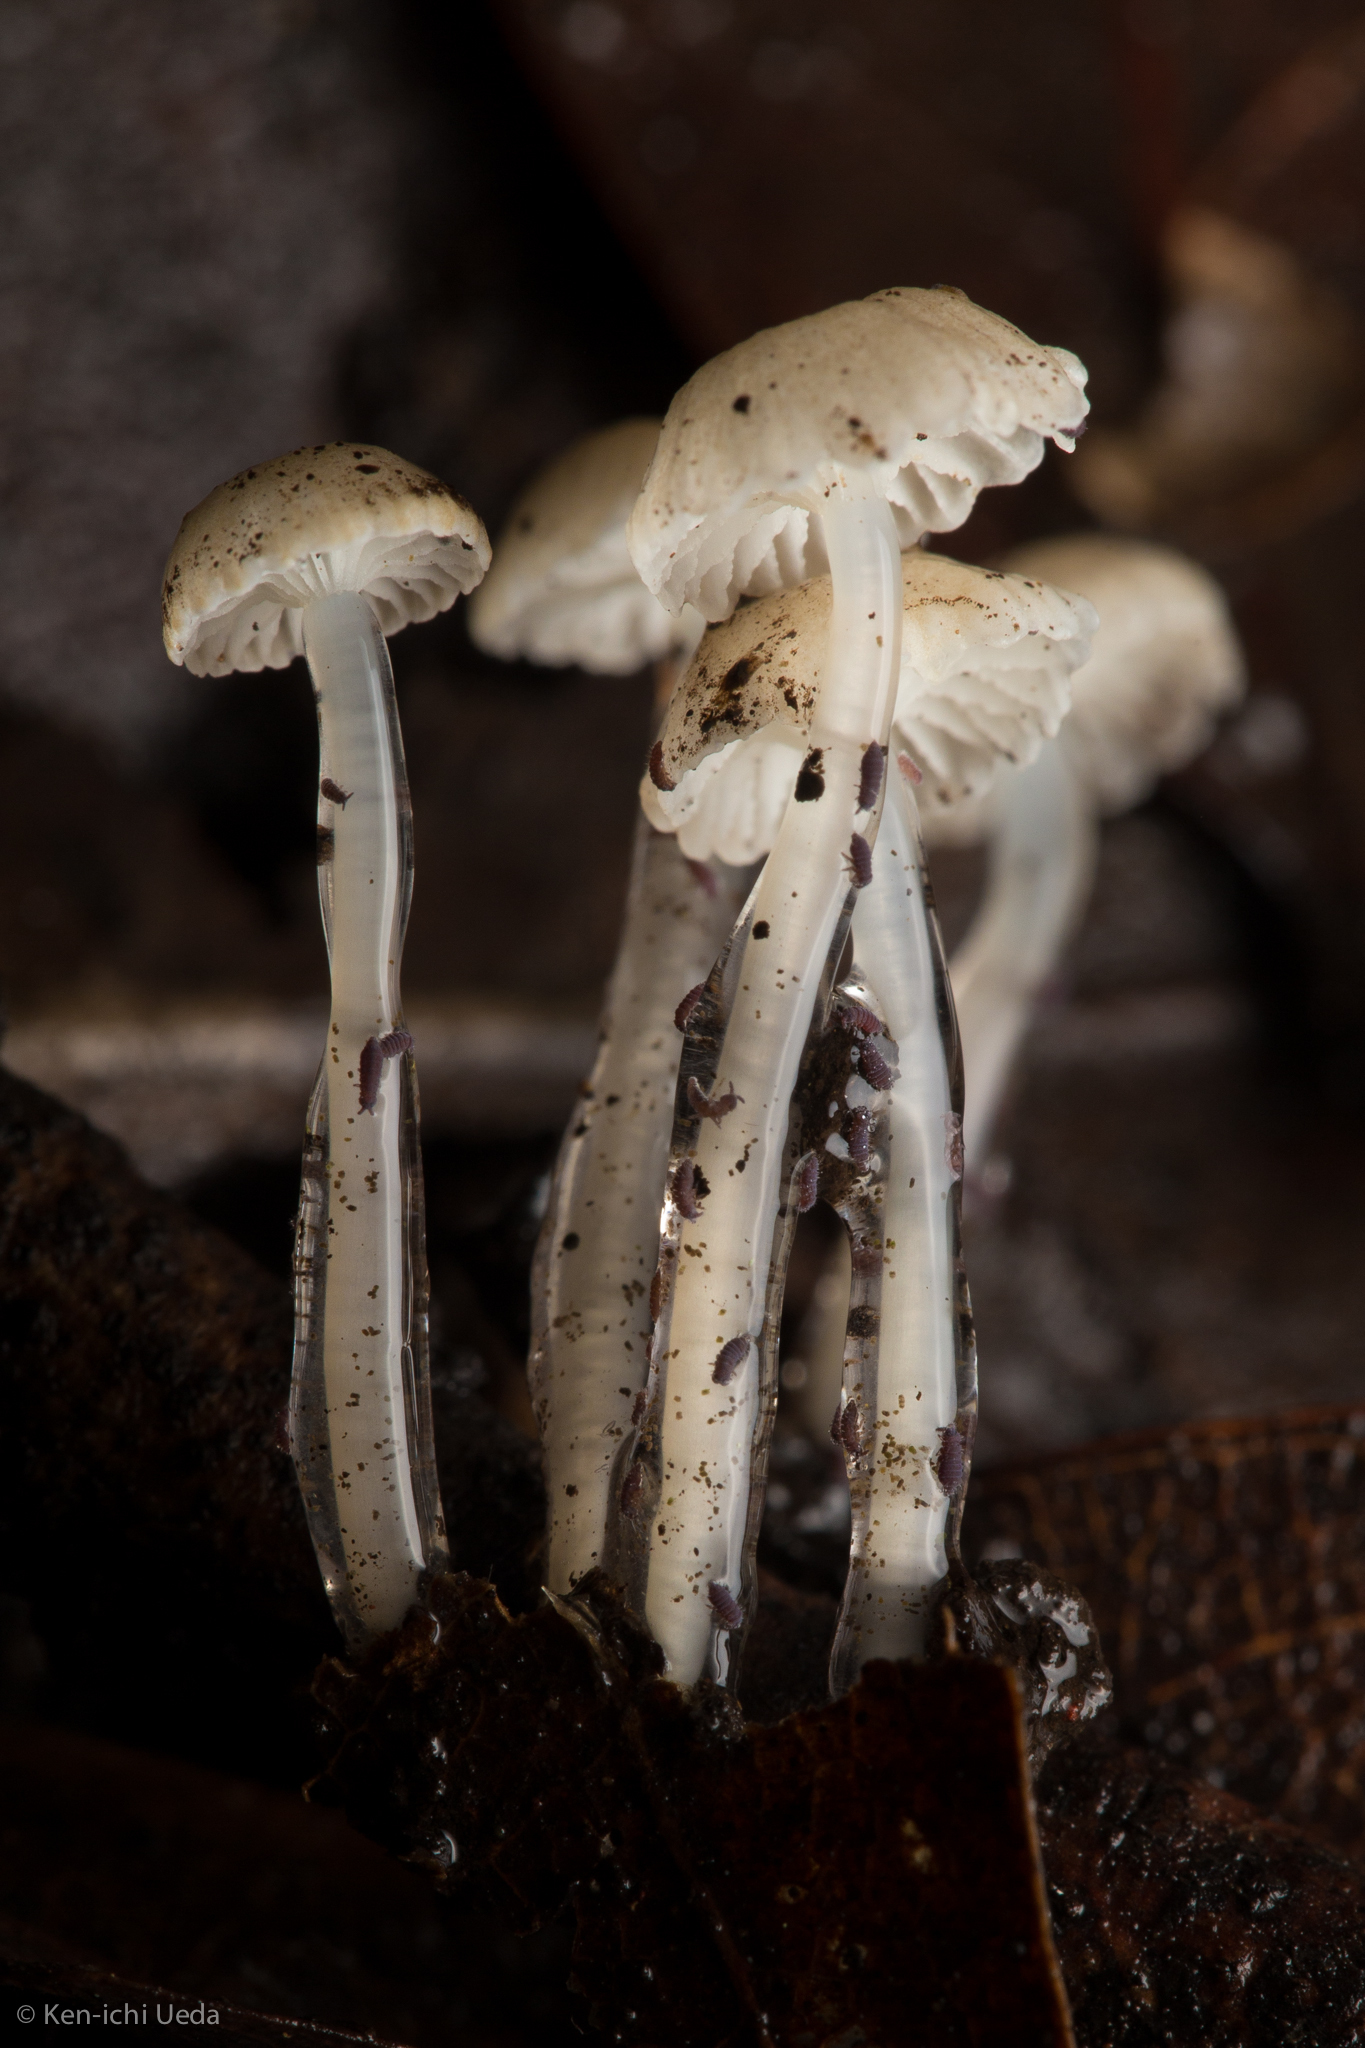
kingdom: Fungi
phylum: Basidiomycota
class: Agaricomycetes
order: Agaricales
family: Mycenaceae
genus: Roridomyces
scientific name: Roridomyces roridus
